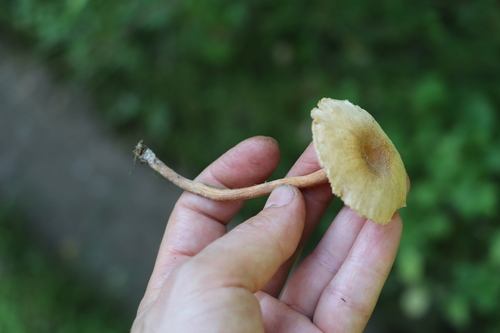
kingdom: Fungi
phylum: Basidiomycota
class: Agaricomycetes
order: Agaricales
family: Hydnangiaceae
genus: Laccaria
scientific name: Laccaria
